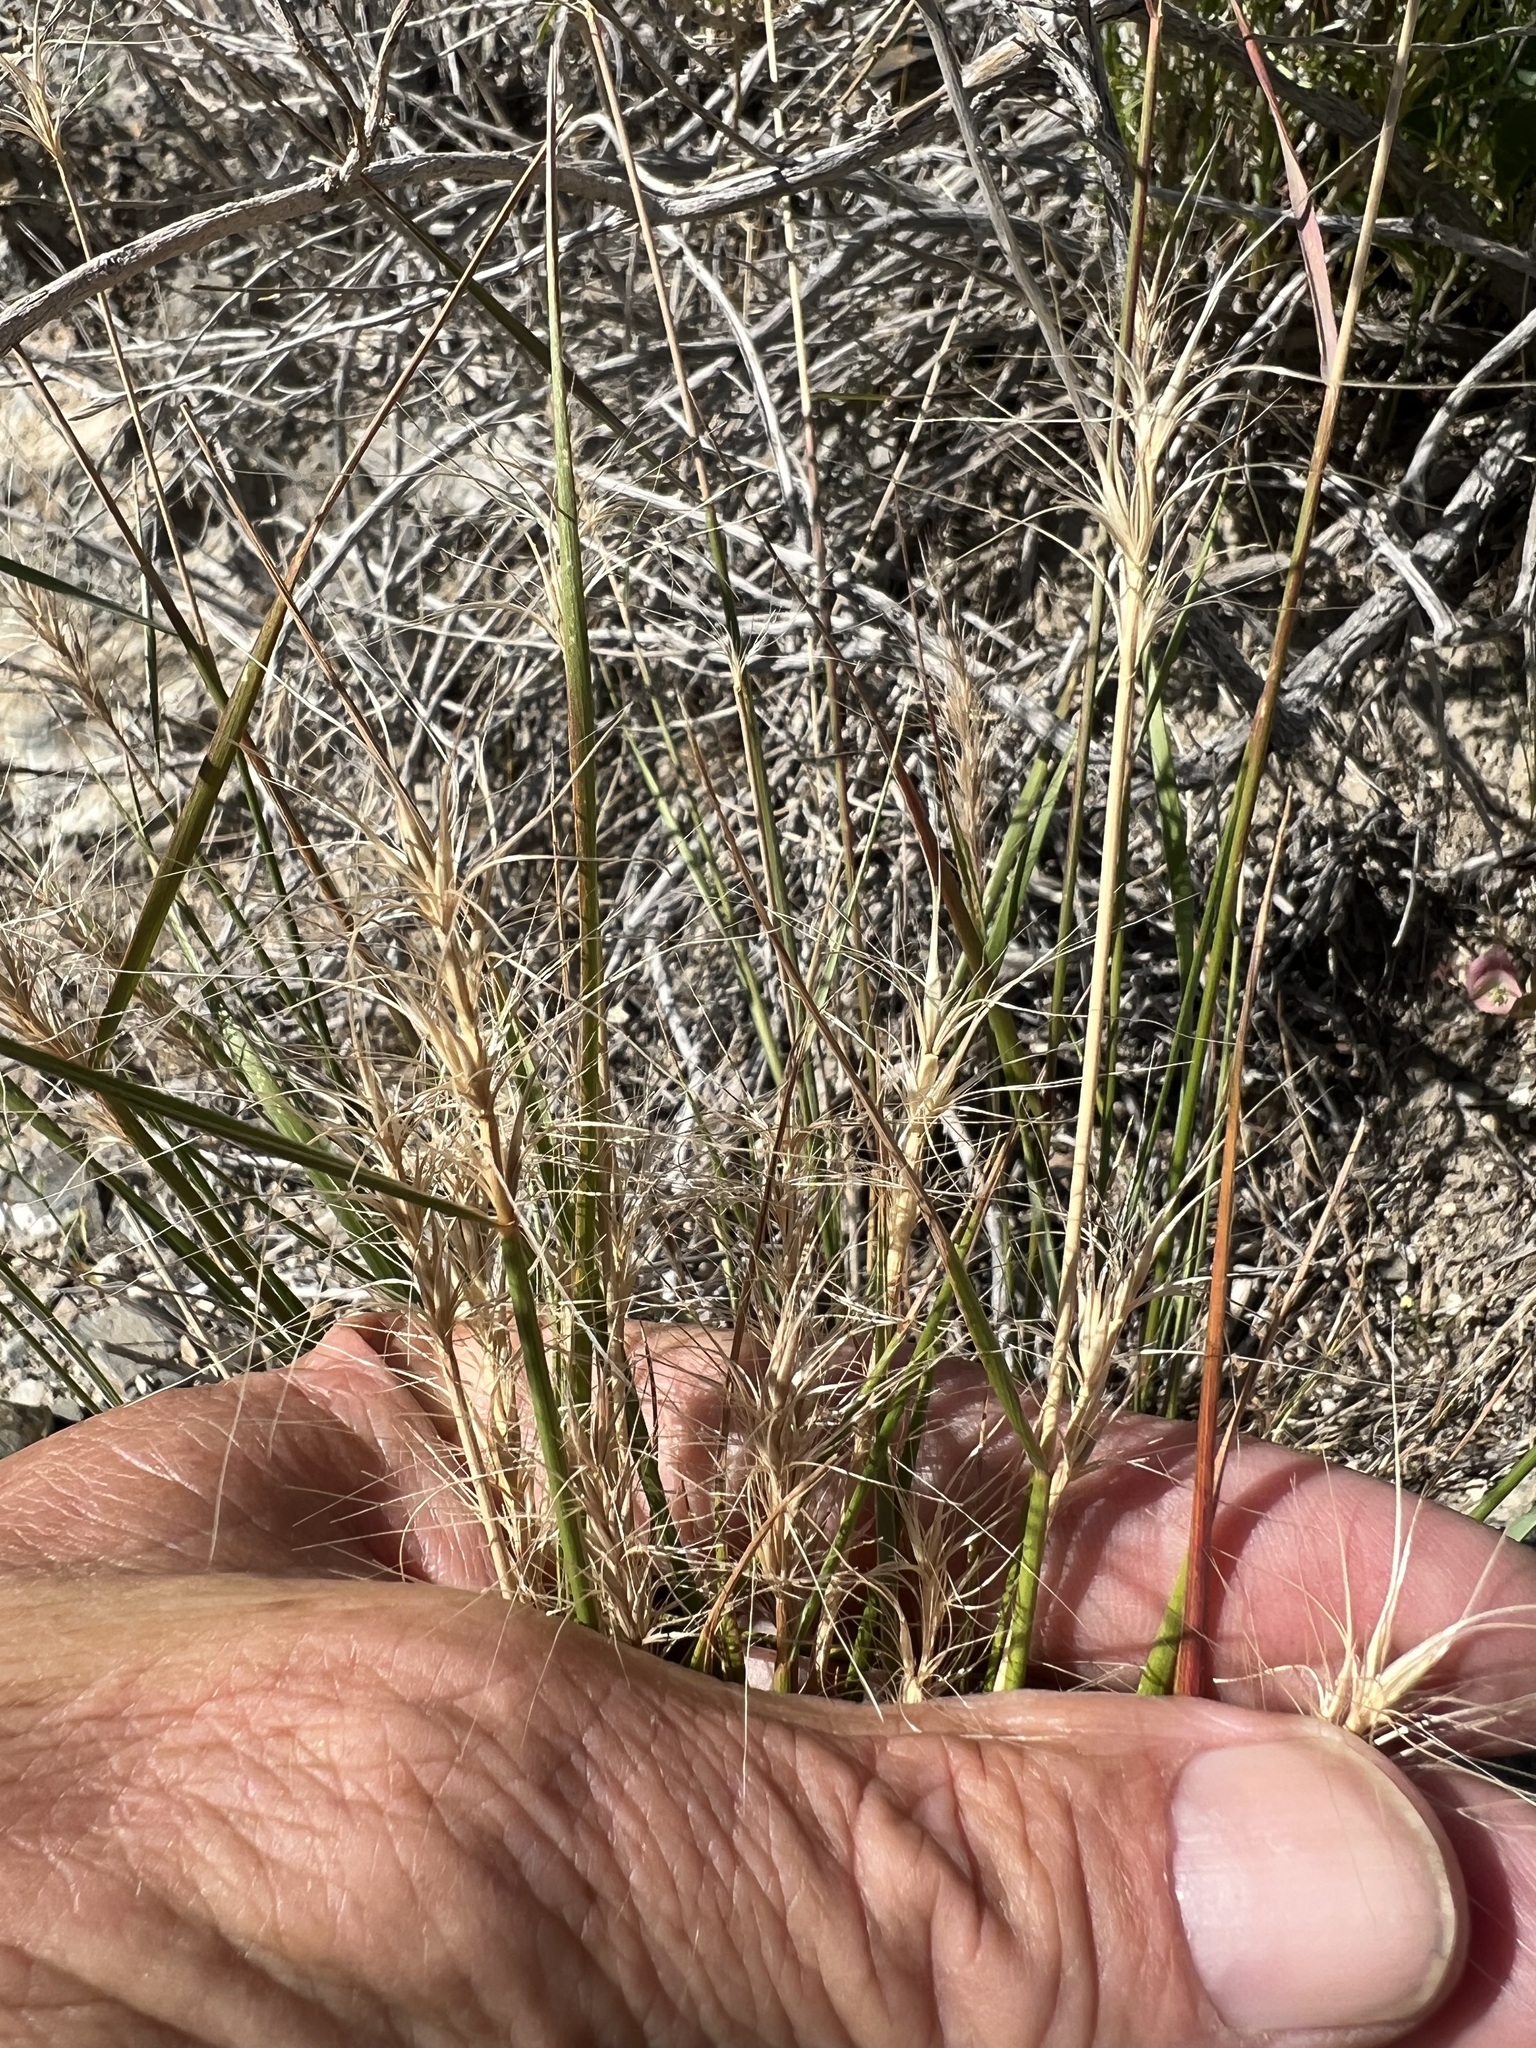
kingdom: Plantae
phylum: Tracheophyta
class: Liliopsida
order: Poales
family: Poaceae
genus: Elymus
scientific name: Elymus elymoides
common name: Bottlebrush squirreltail
